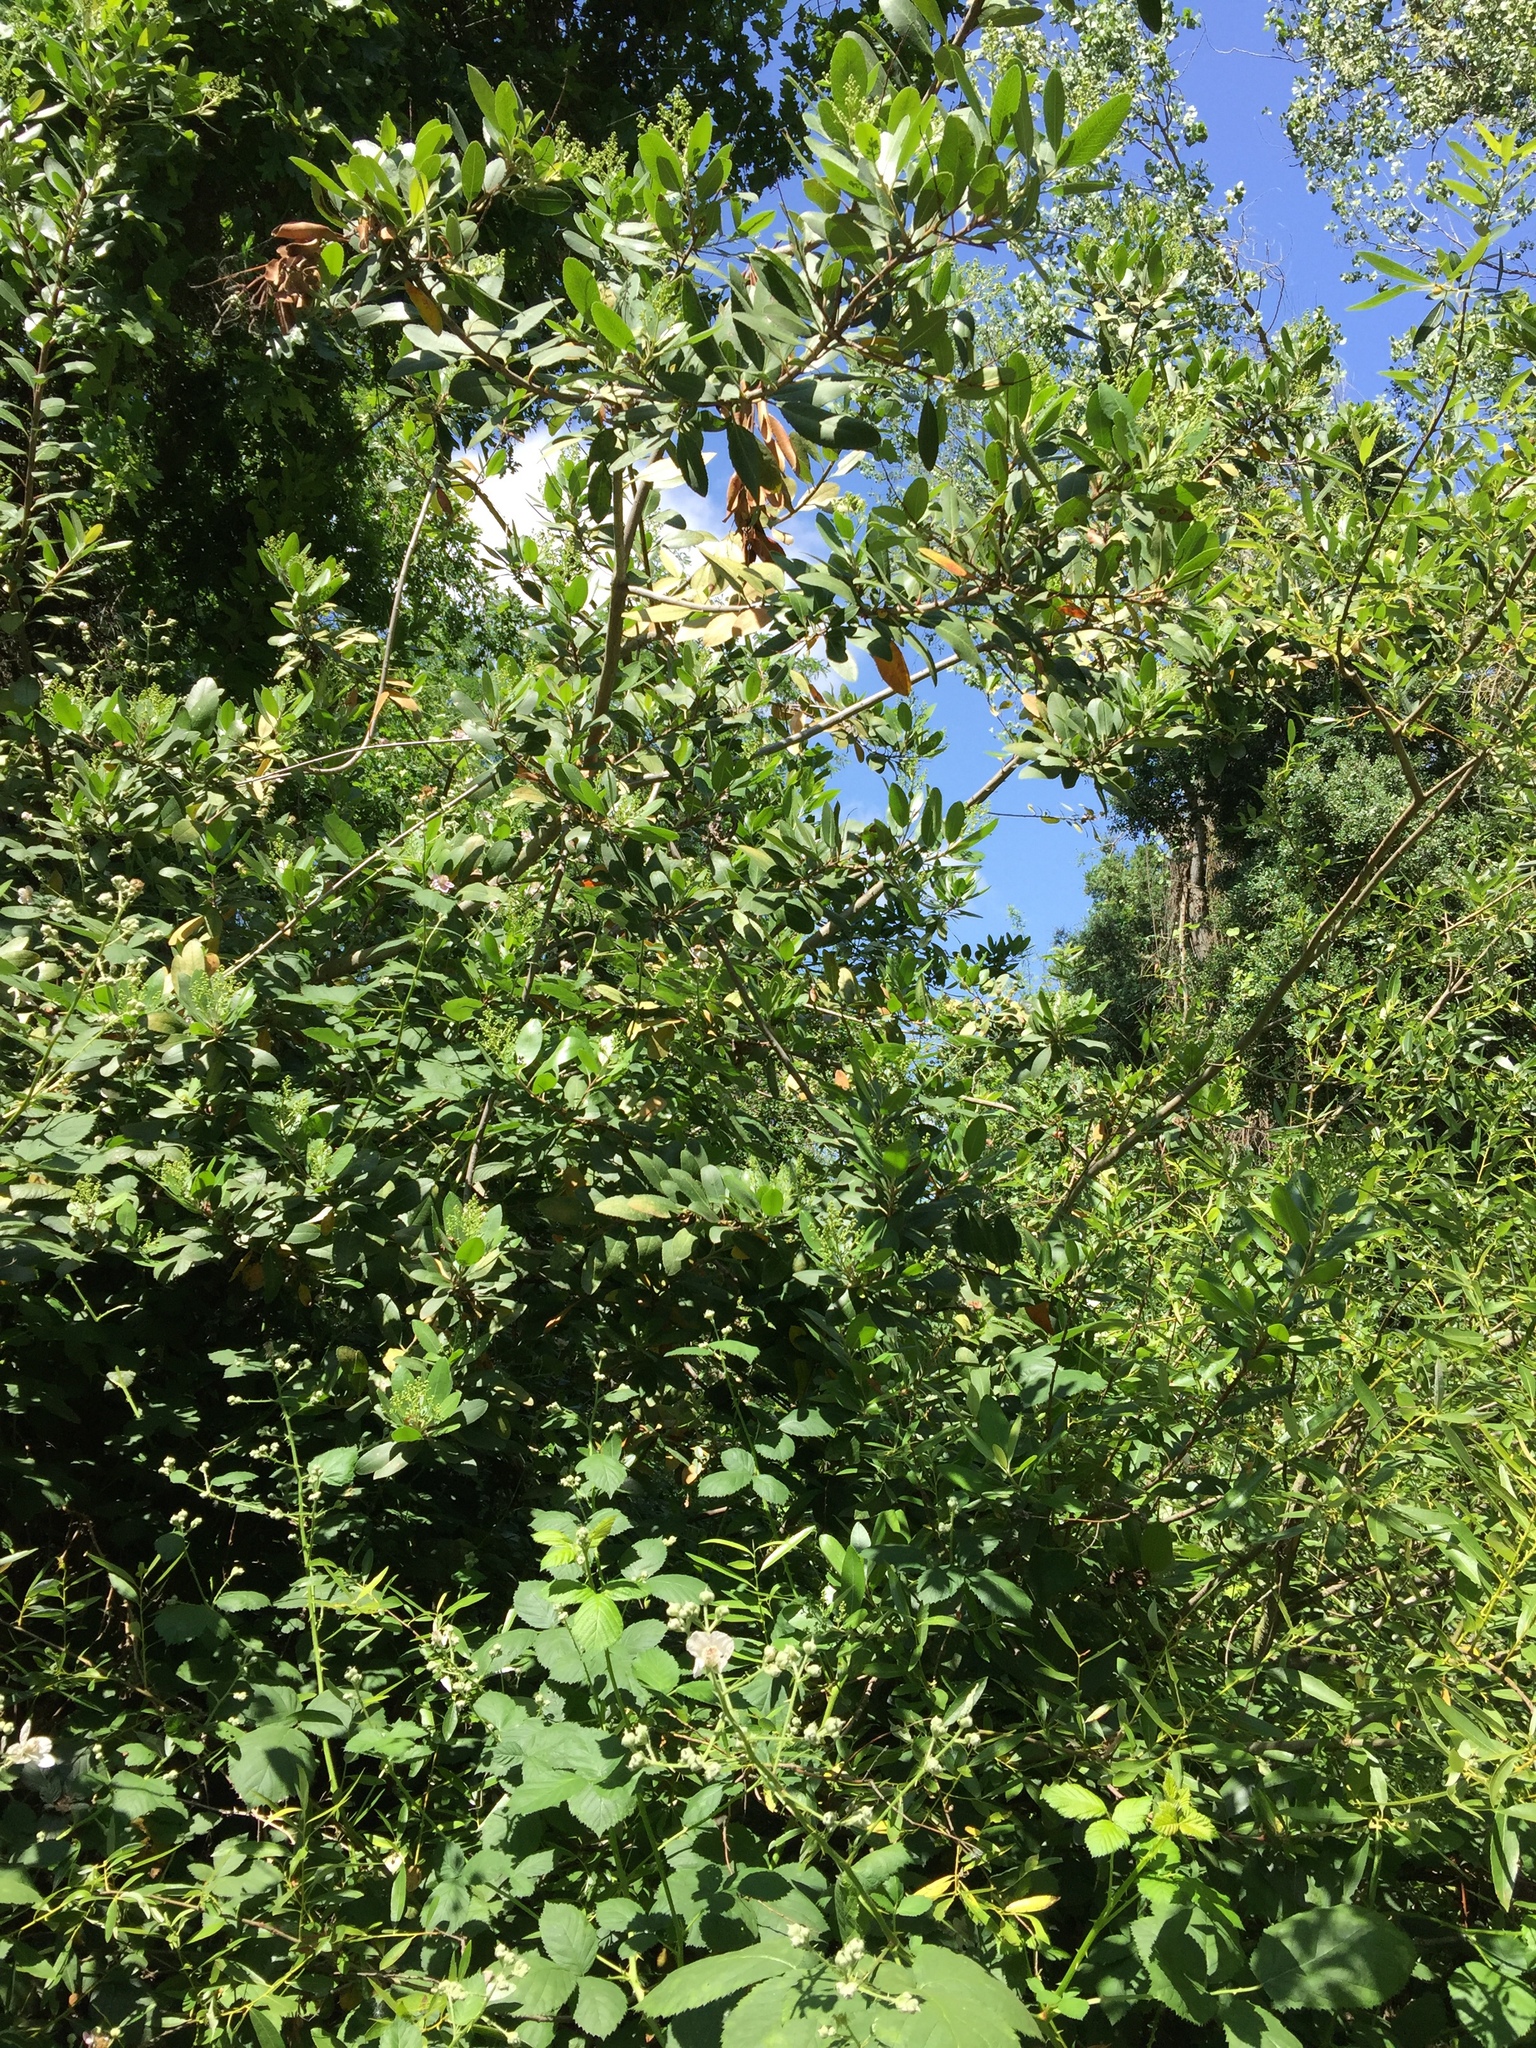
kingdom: Plantae
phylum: Tracheophyta
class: Magnoliopsida
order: Rosales
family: Rosaceae
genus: Heteromeles
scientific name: Heteromeles arbutifolia
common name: California-holly
